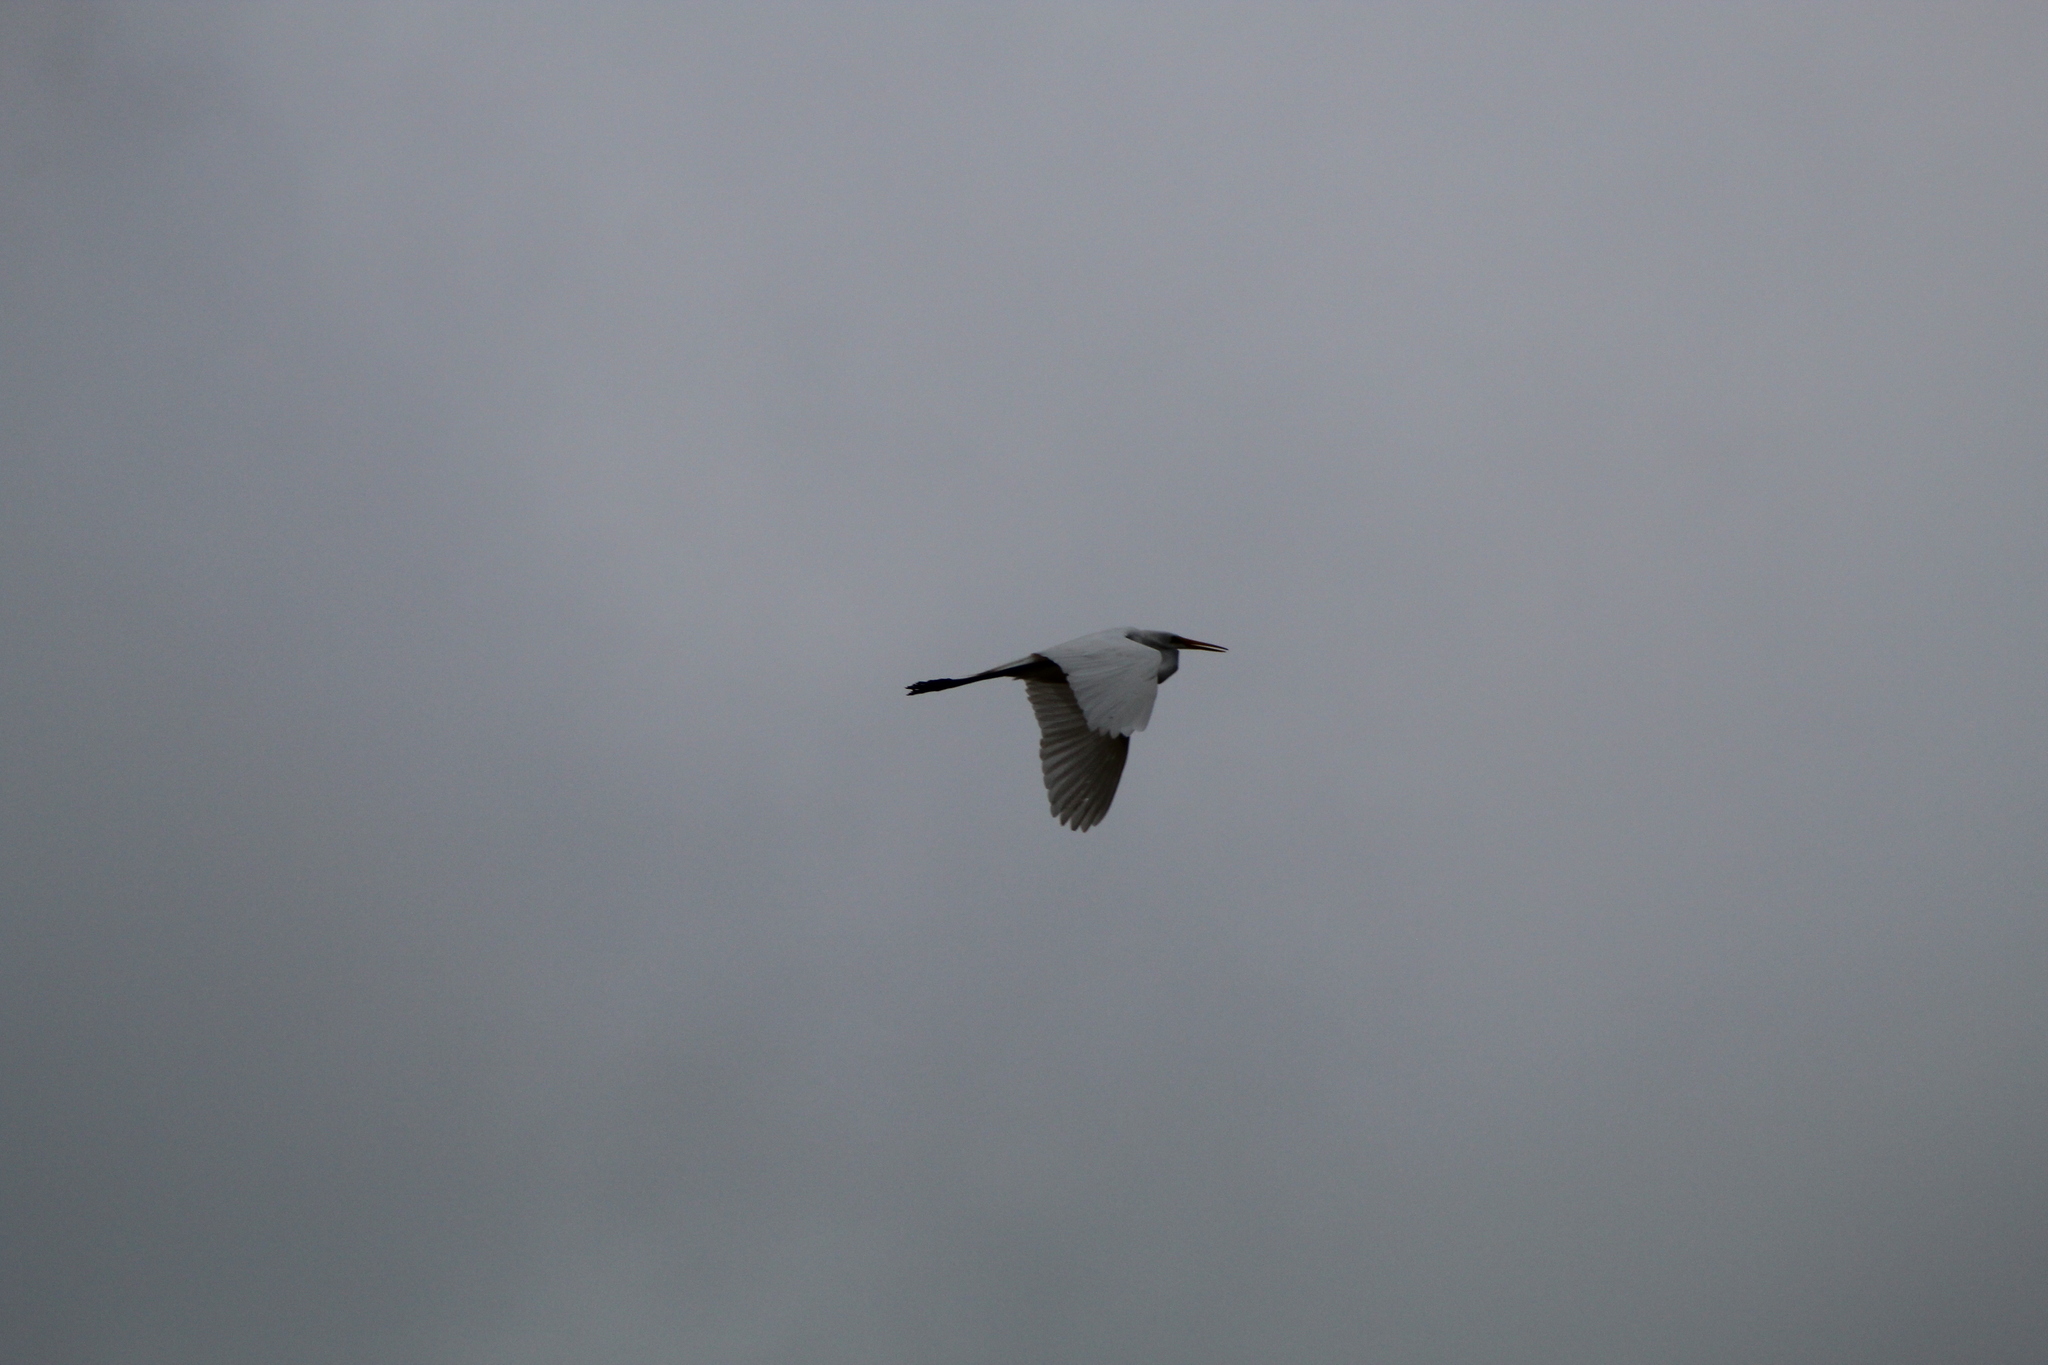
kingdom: Animalia
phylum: Chordata
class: Aves
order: Pelecaniformes
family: Ardeidae
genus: Ardea
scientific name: Ardea alba
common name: Great egret
